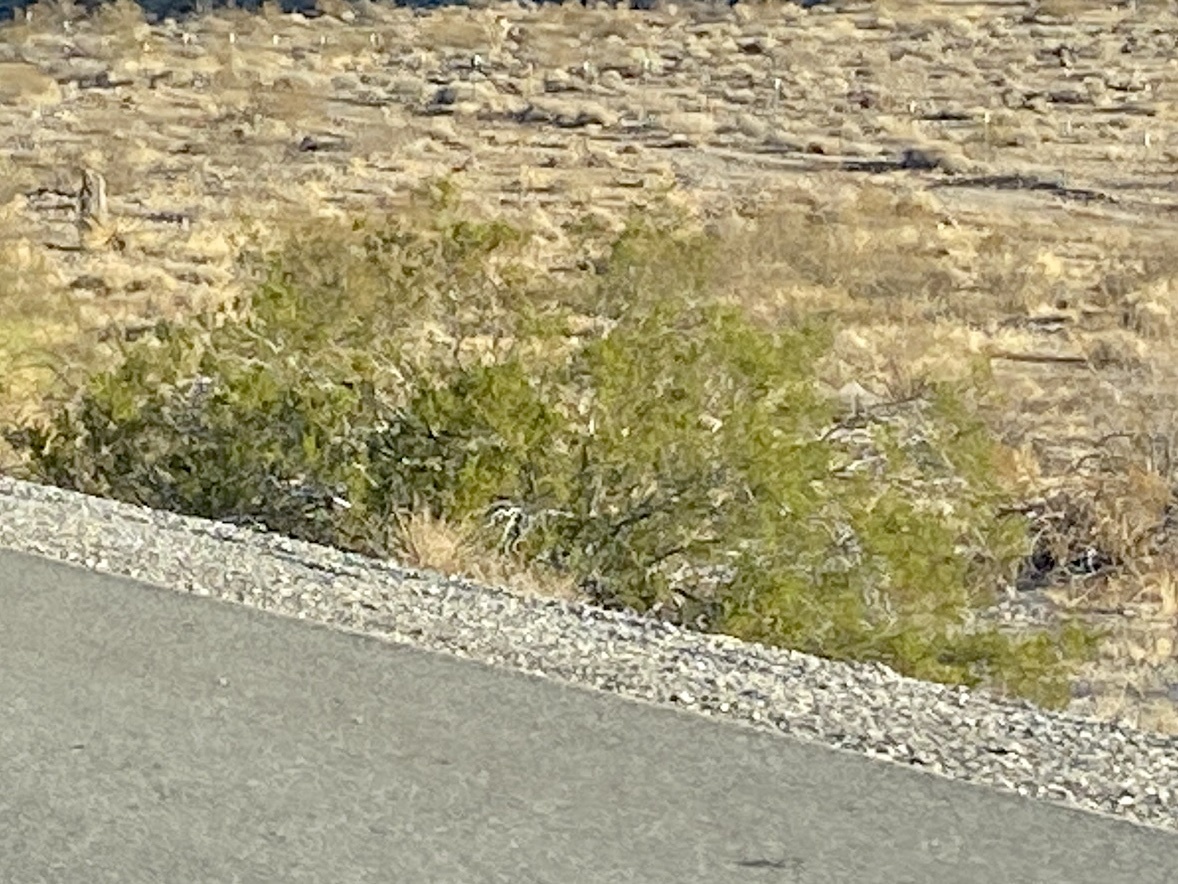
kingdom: Plantae
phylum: Tracheophyta
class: Magnoliopsida
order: Zygophyllales
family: Zygophyllaceae
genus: Larrea
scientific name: Larrea tridentata
